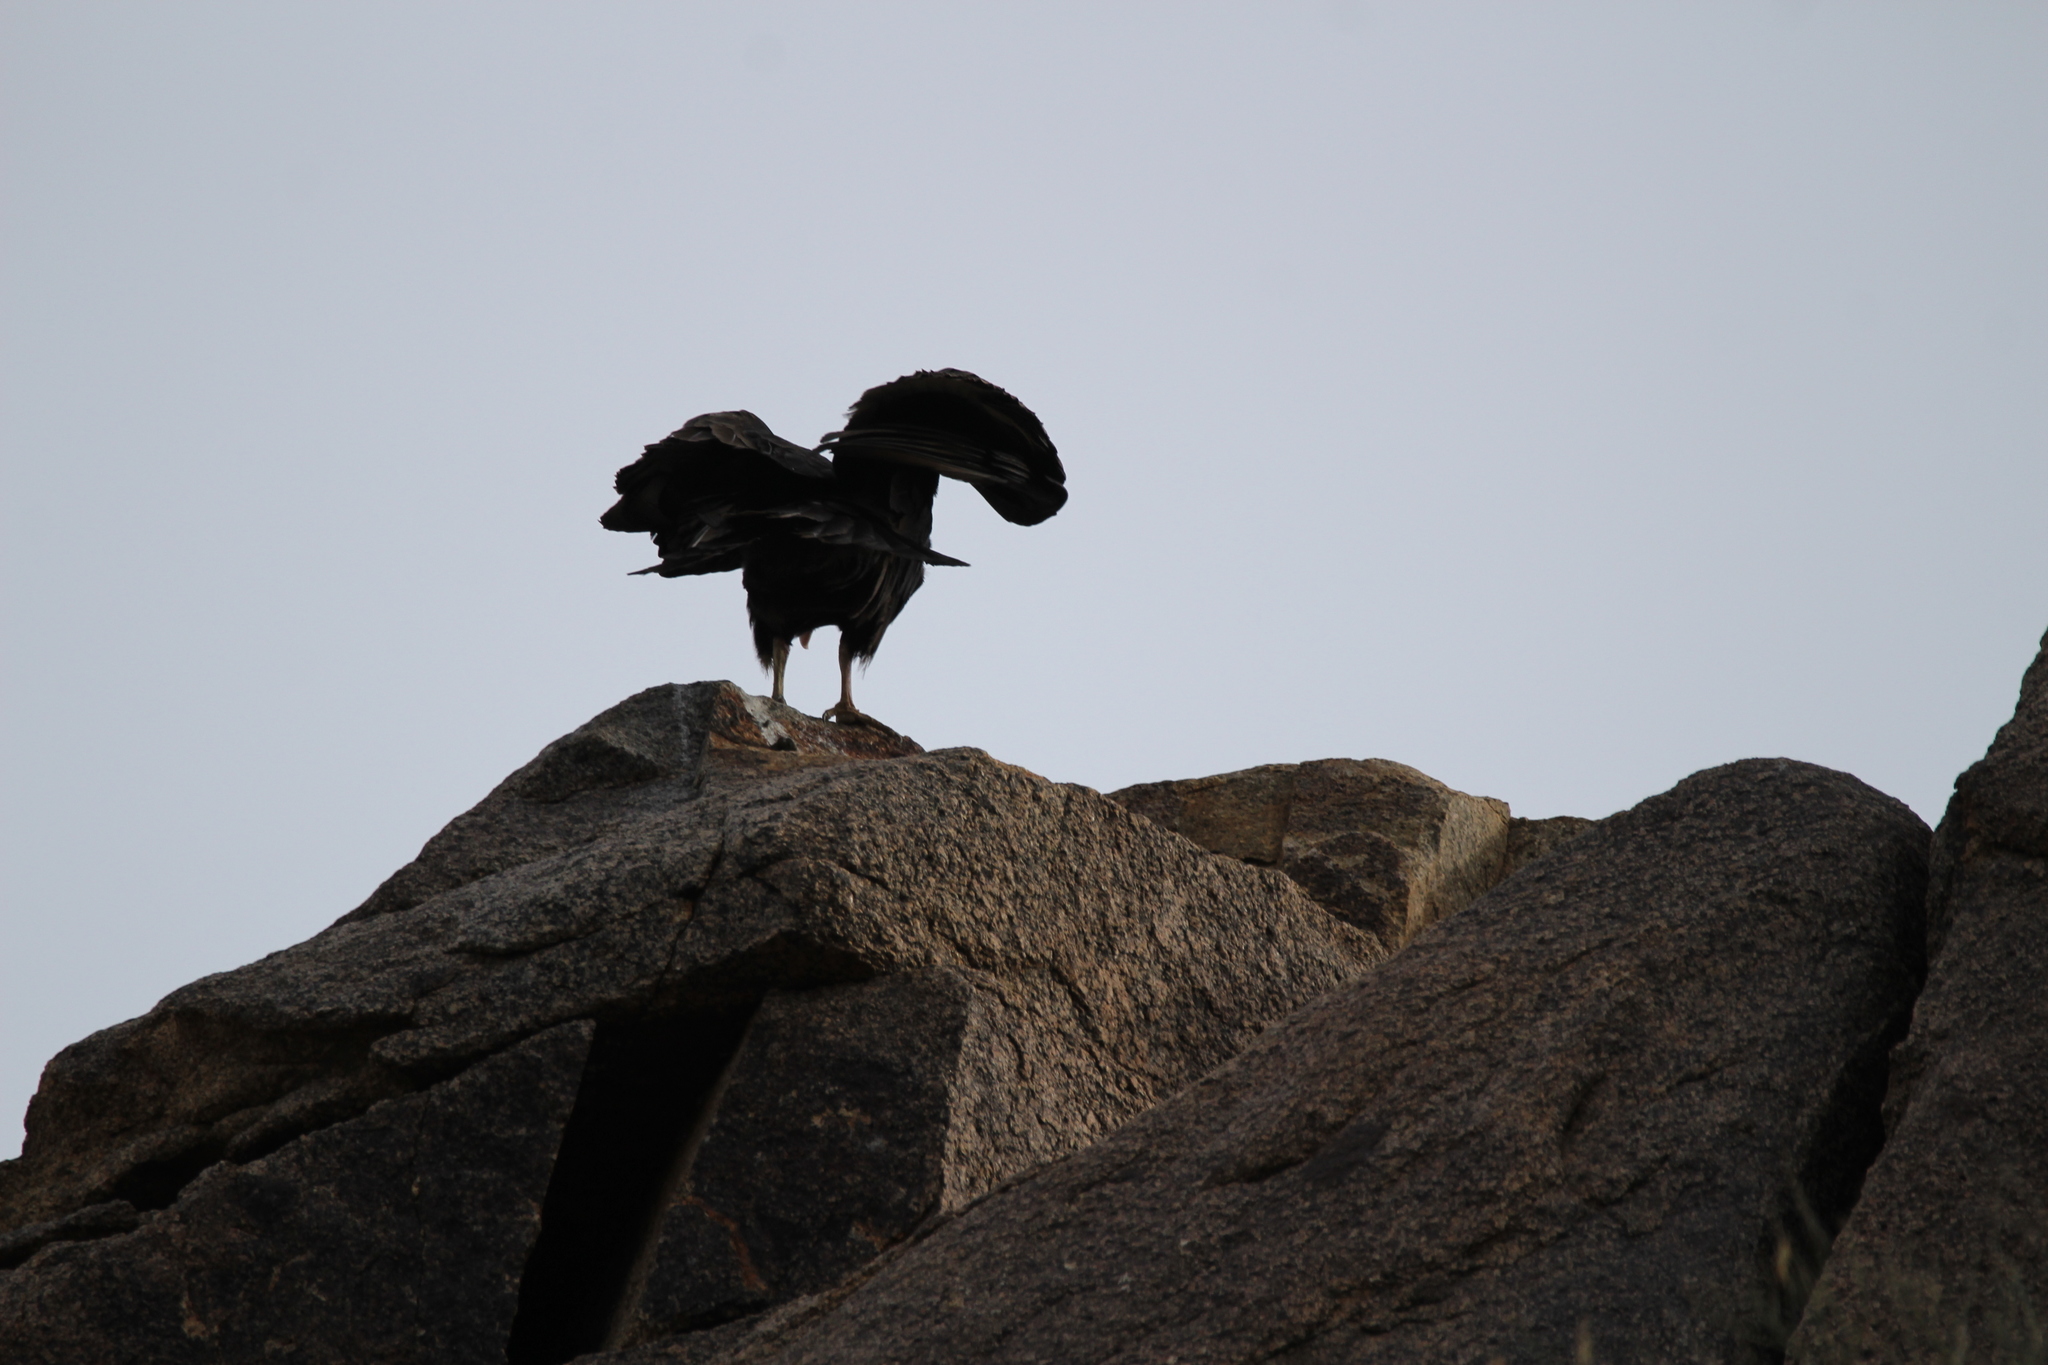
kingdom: Animalia
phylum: Chordata
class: Aves
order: Accipitriformes
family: Cathartidae
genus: Cathartes
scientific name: Cathartes aura
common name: Turkey vulture
